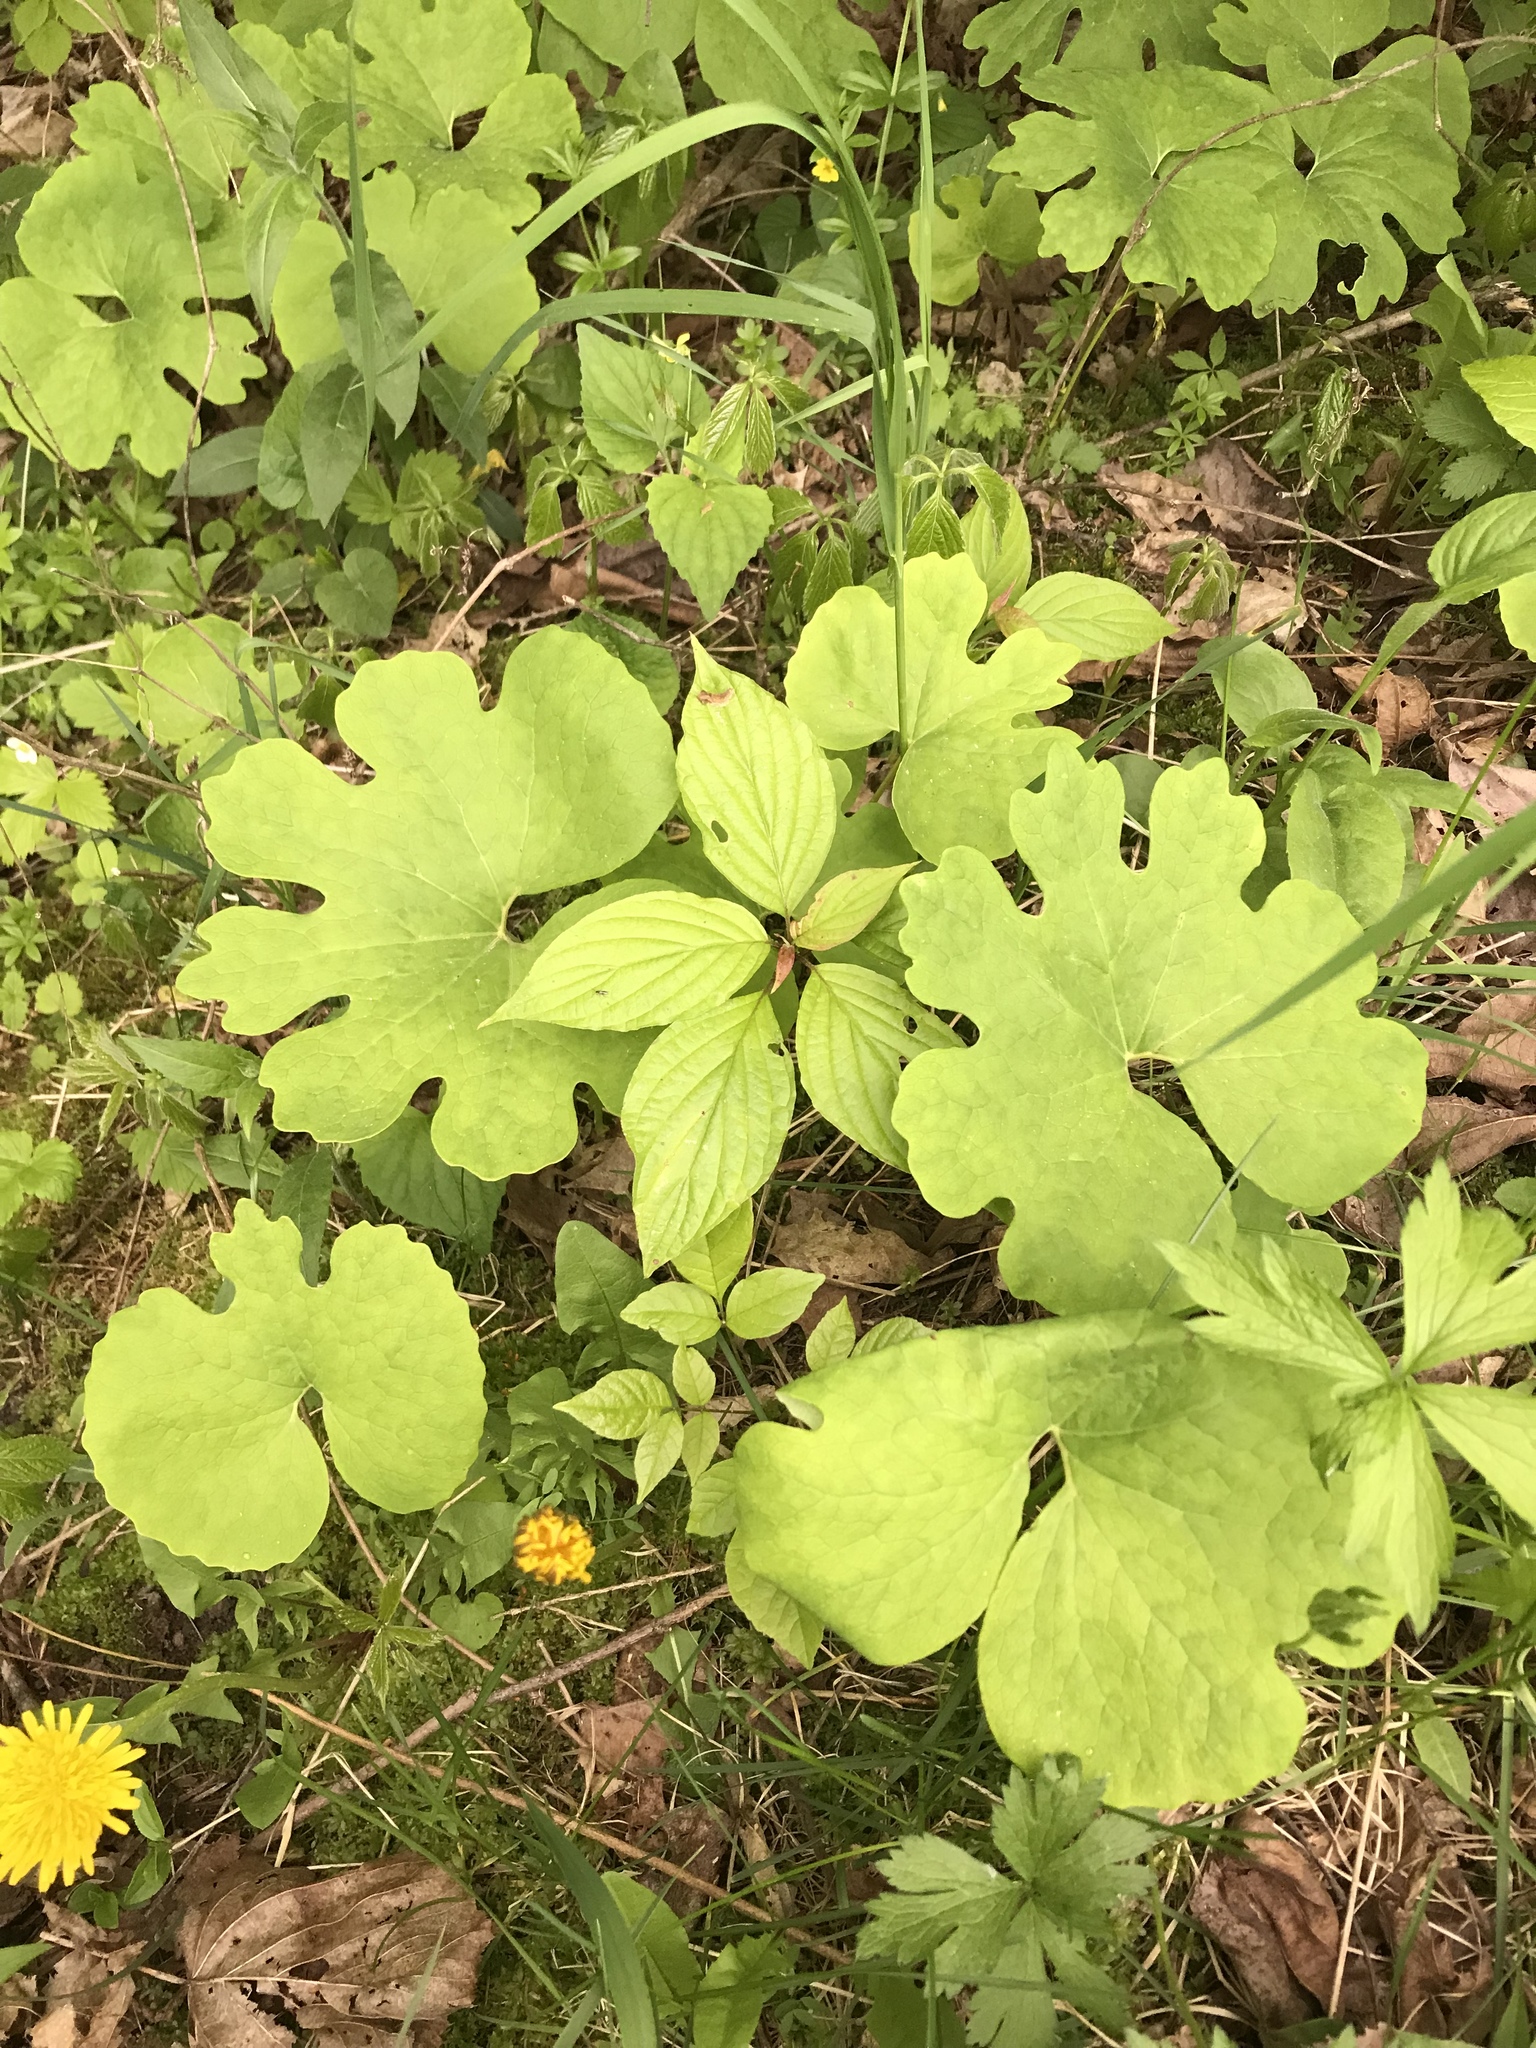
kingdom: Plantae
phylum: Tracheophyta
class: Magnoliopsida
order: Ranunculales
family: Papaveraceae
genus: Sanguinaria
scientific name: Sanguinaria canadensis
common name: Bloodroot
